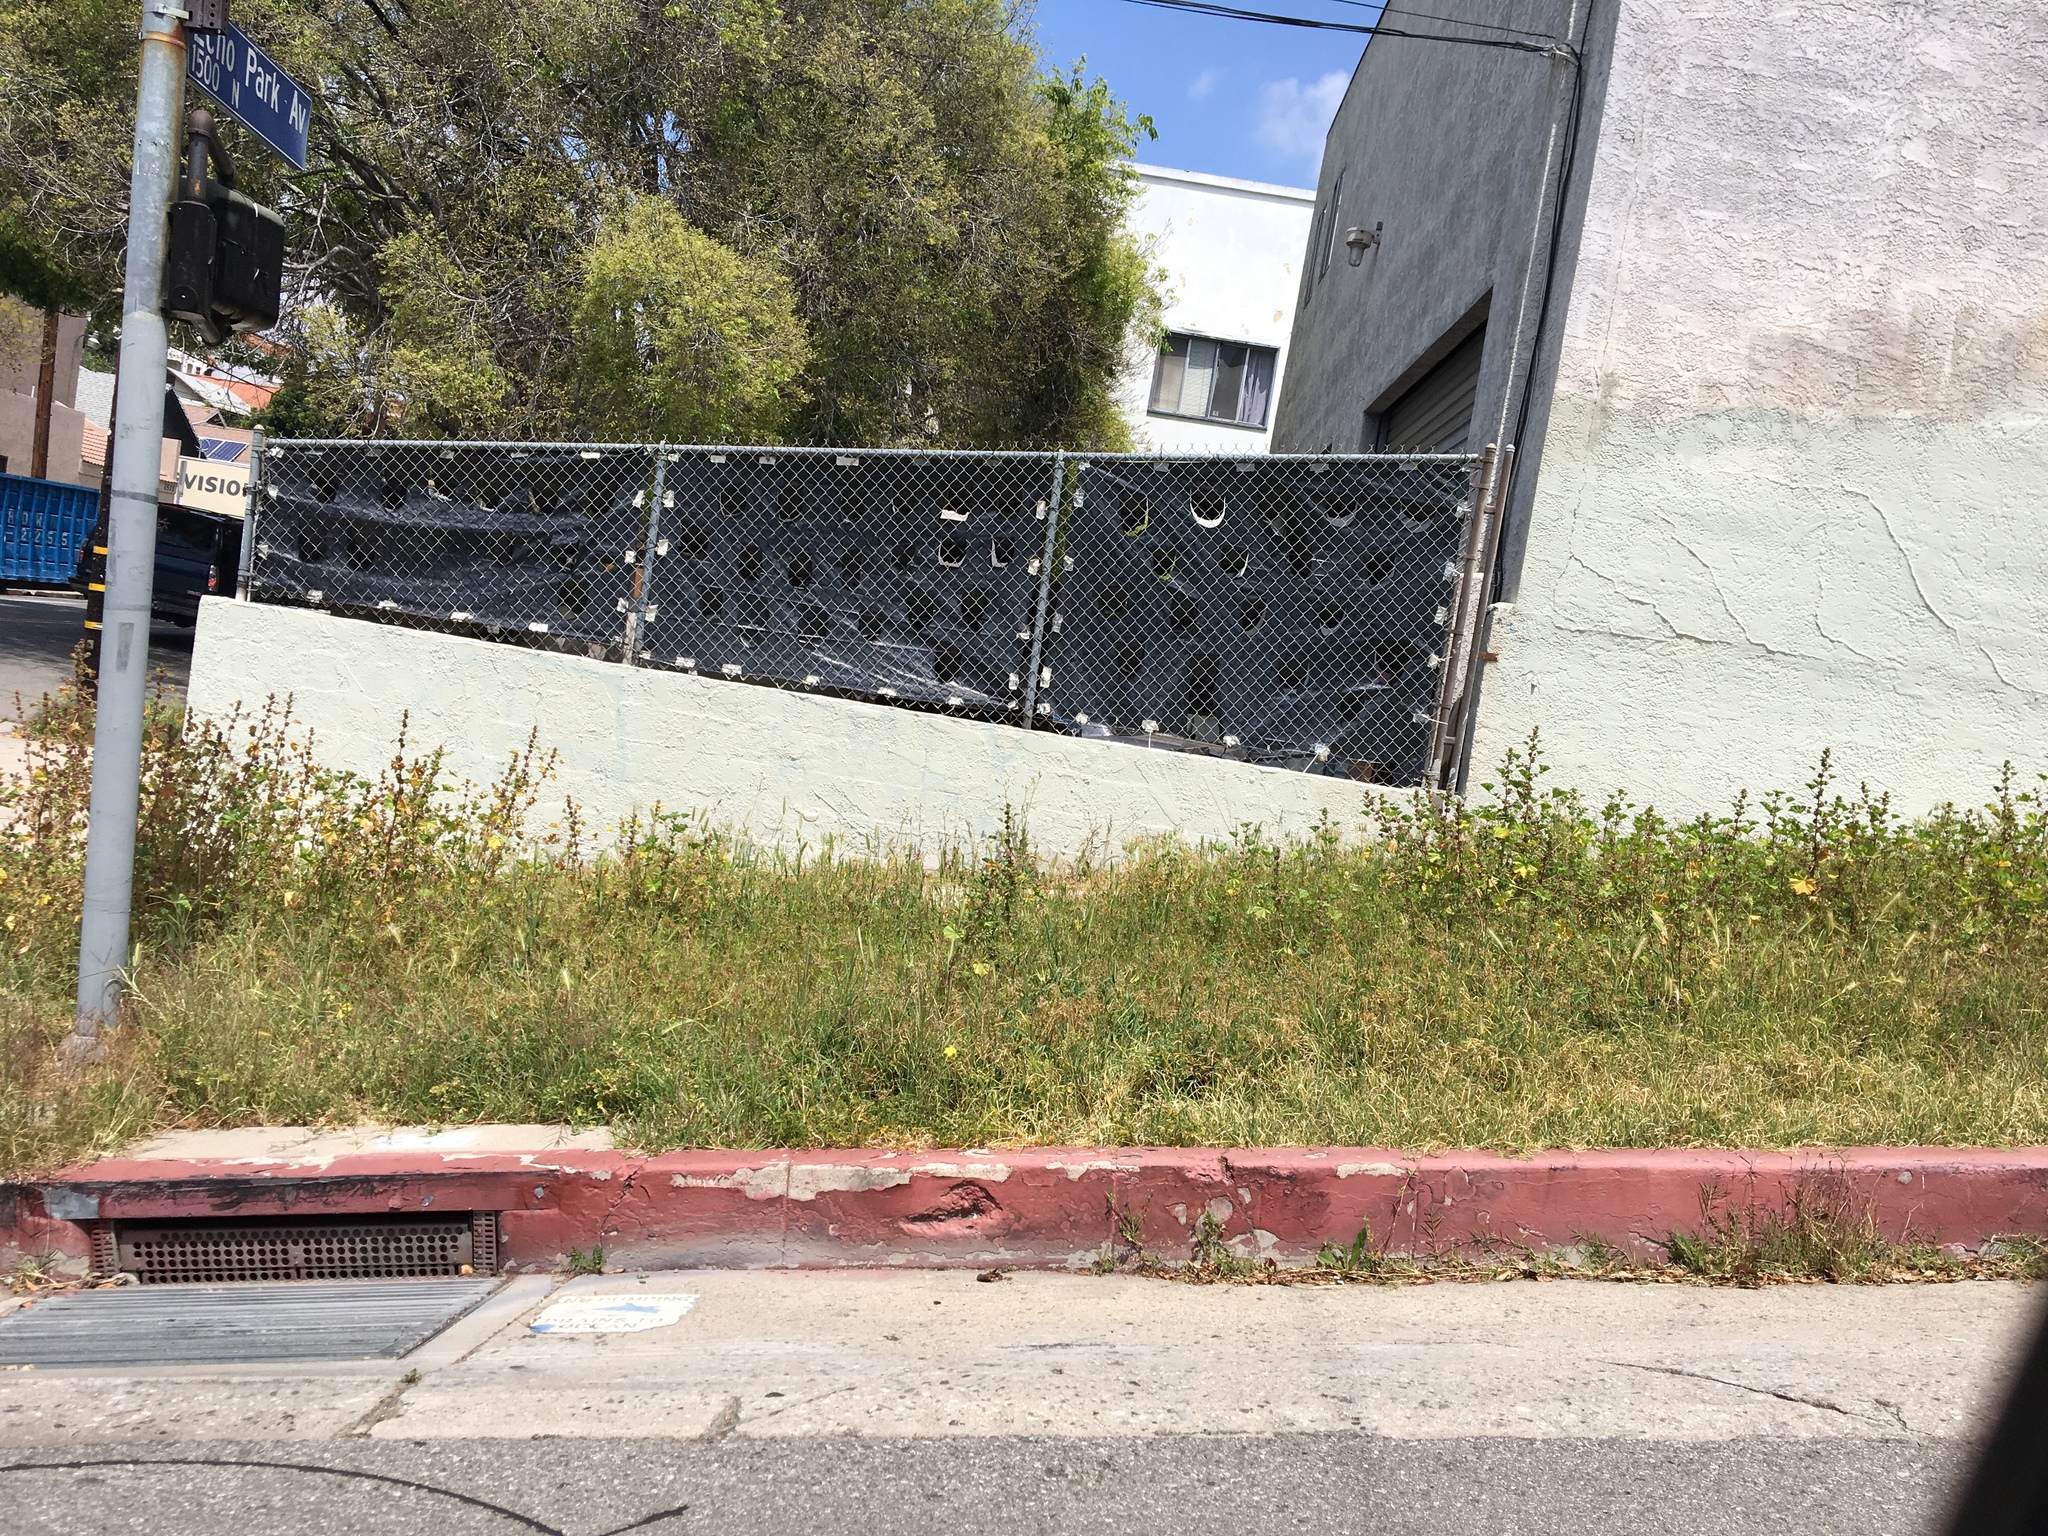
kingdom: Plantae
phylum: Tracheophyta
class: Magnoliopsida
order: Malvales
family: Malvaceae
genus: Malva
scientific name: Malva parviflora
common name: Least mallow
